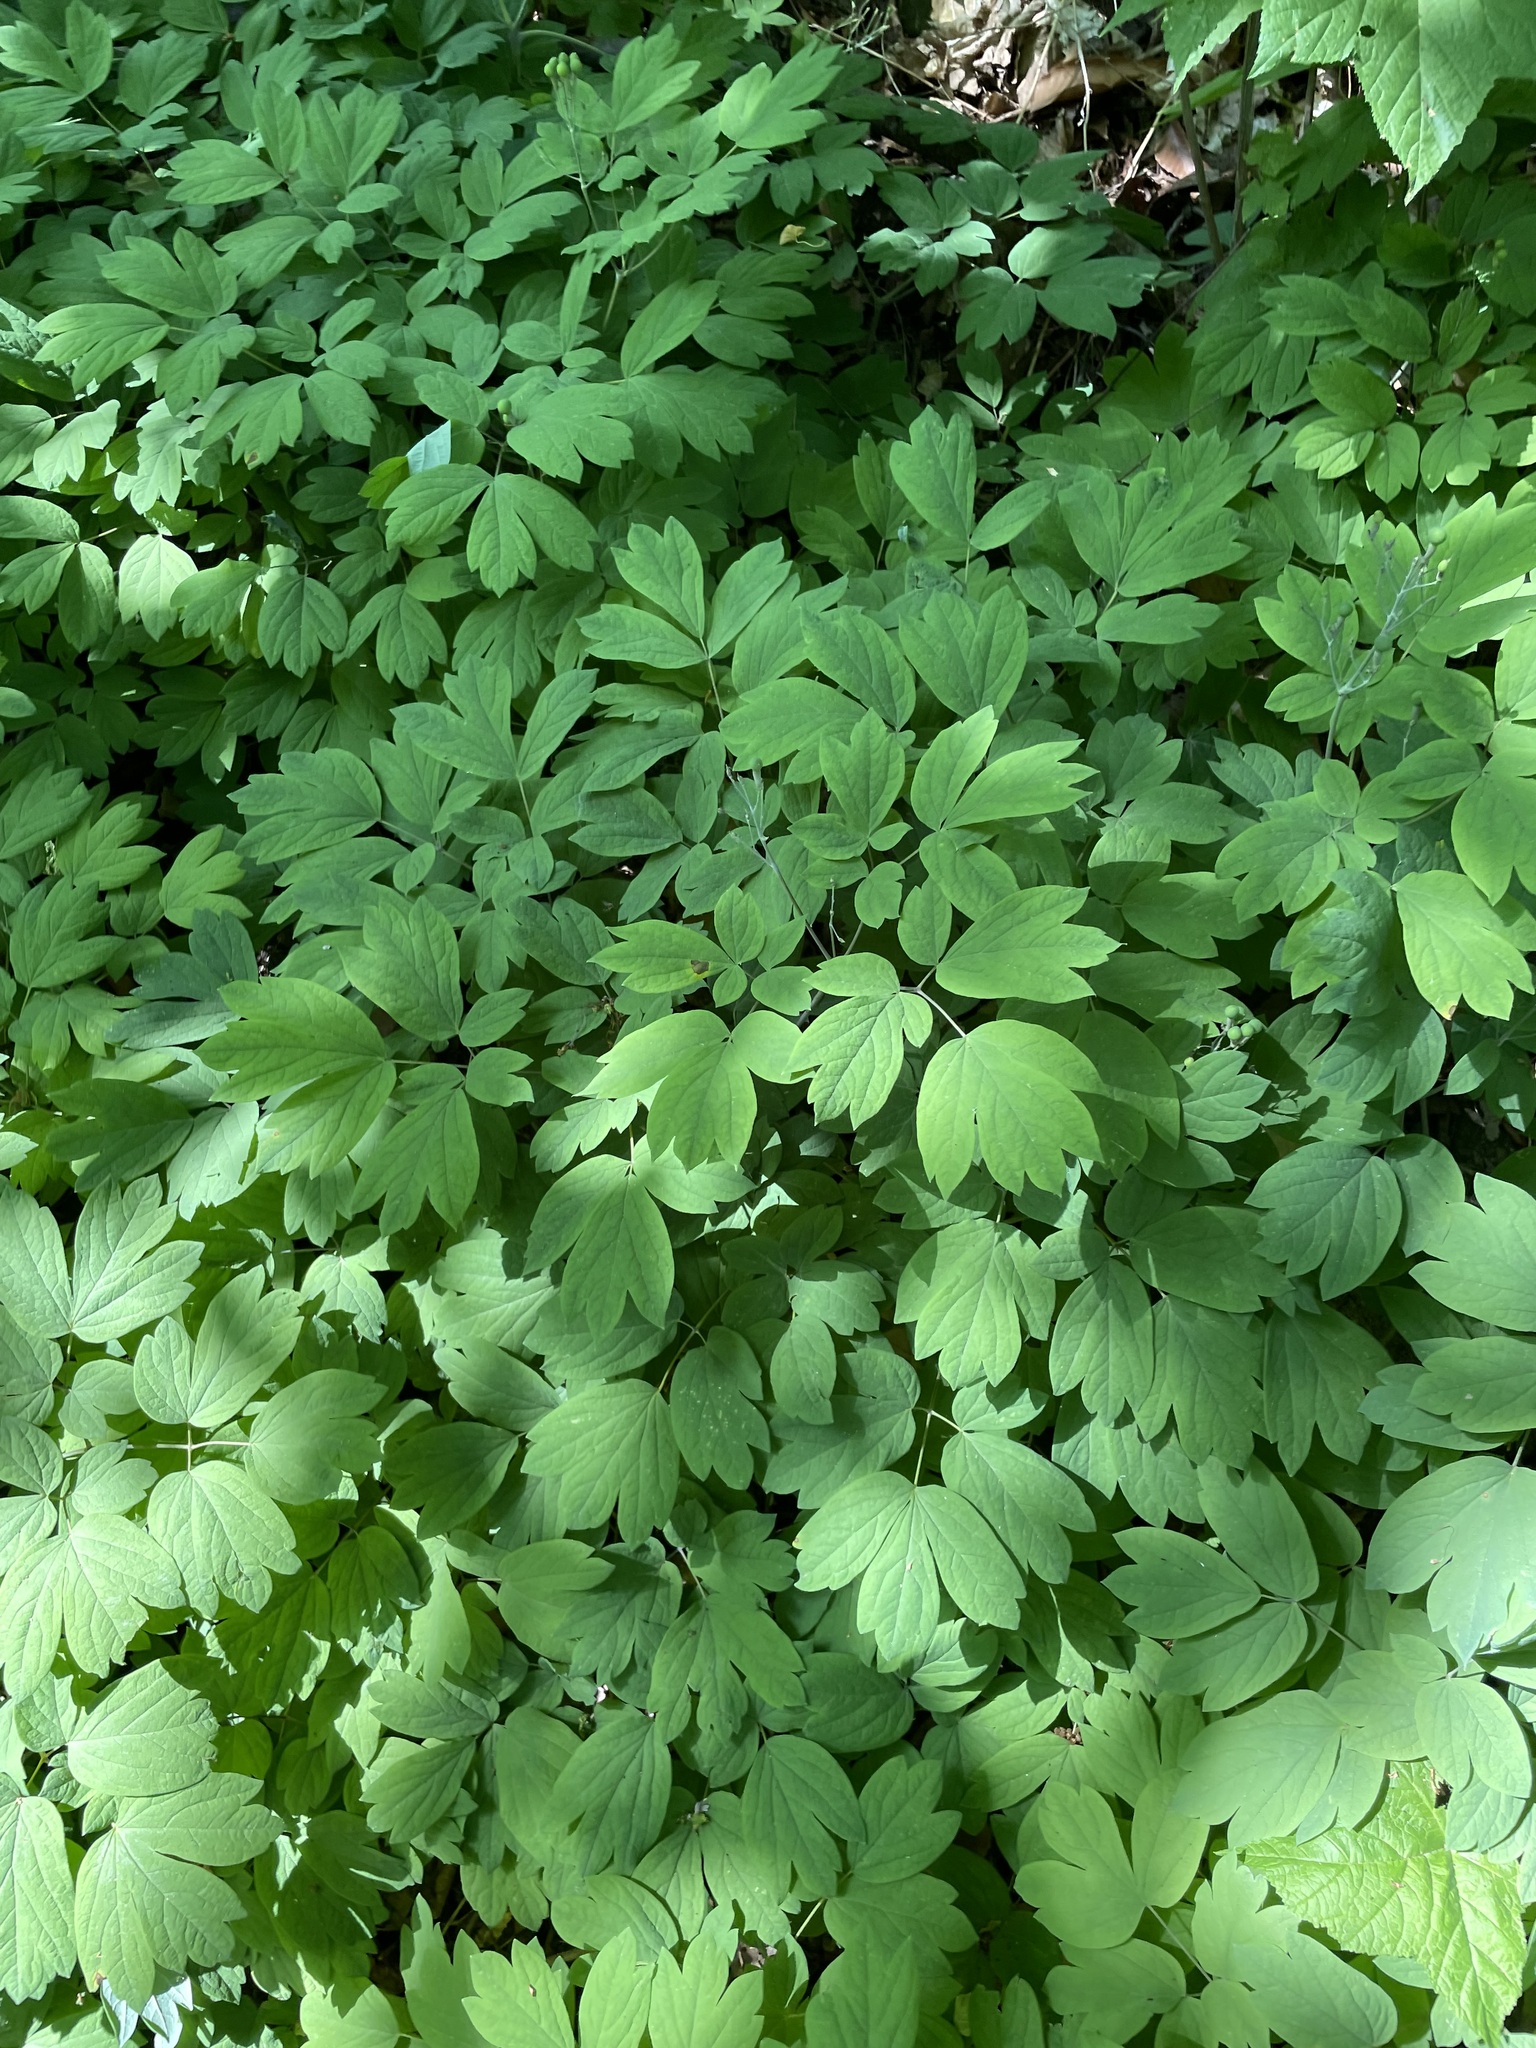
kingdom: Plantae
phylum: Tracheophyta
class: Magnoliopsida
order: Ranunculales
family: Berberidaceae
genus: Caulophyllum
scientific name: Caulophyllum giganteum
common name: Blue cohosh
